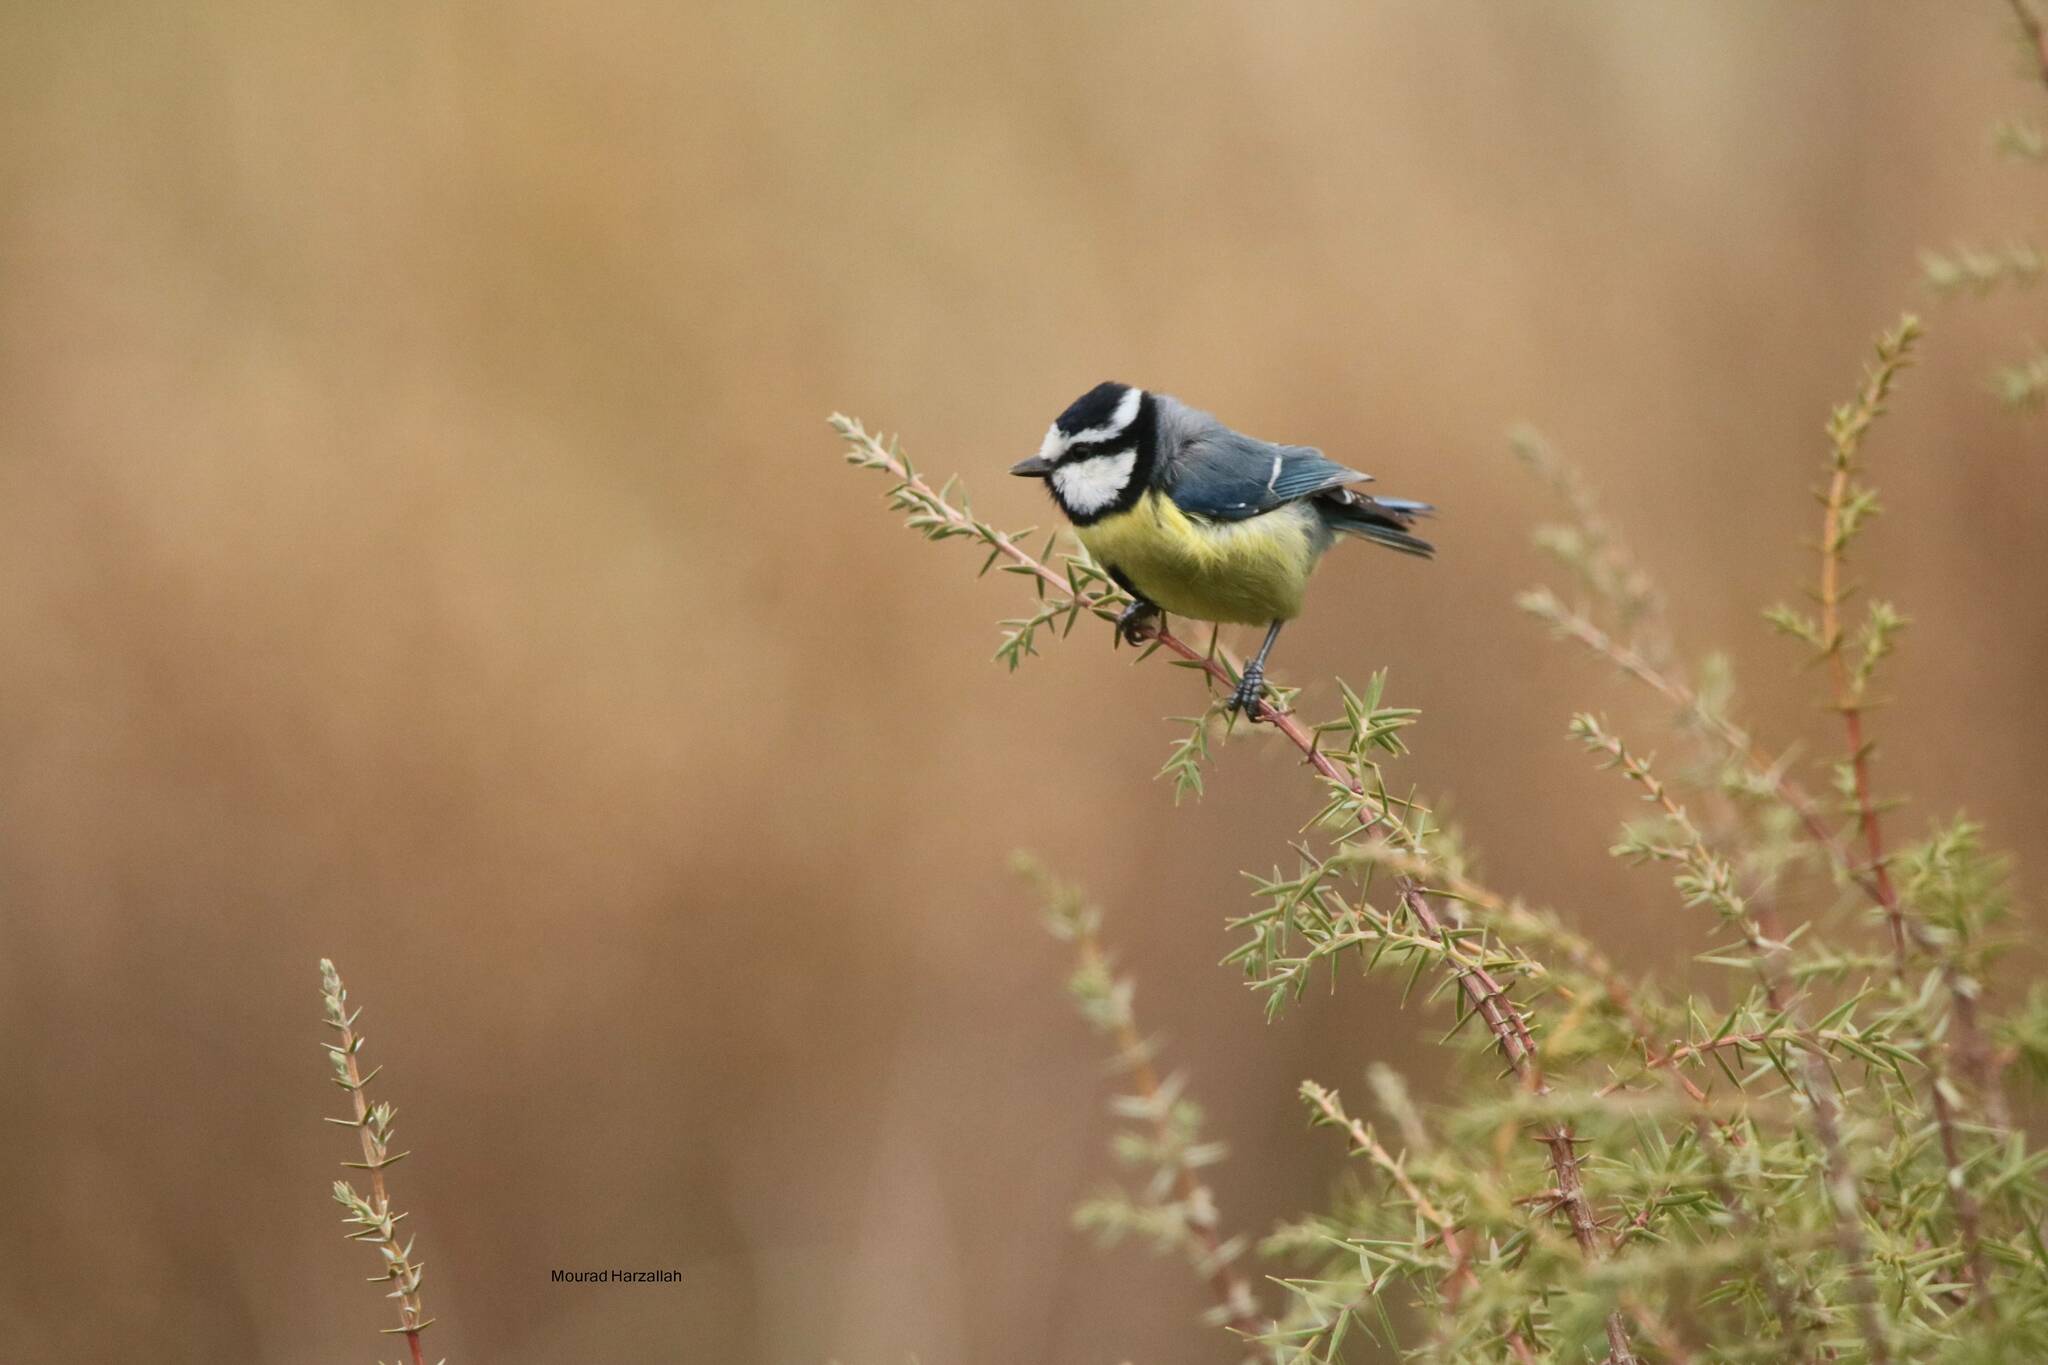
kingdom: Animalia
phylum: Chordata
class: Aves
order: Passeriformes
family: Paridae
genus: Cyanistes
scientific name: Cyanistes teneriffae
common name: African blue tit
